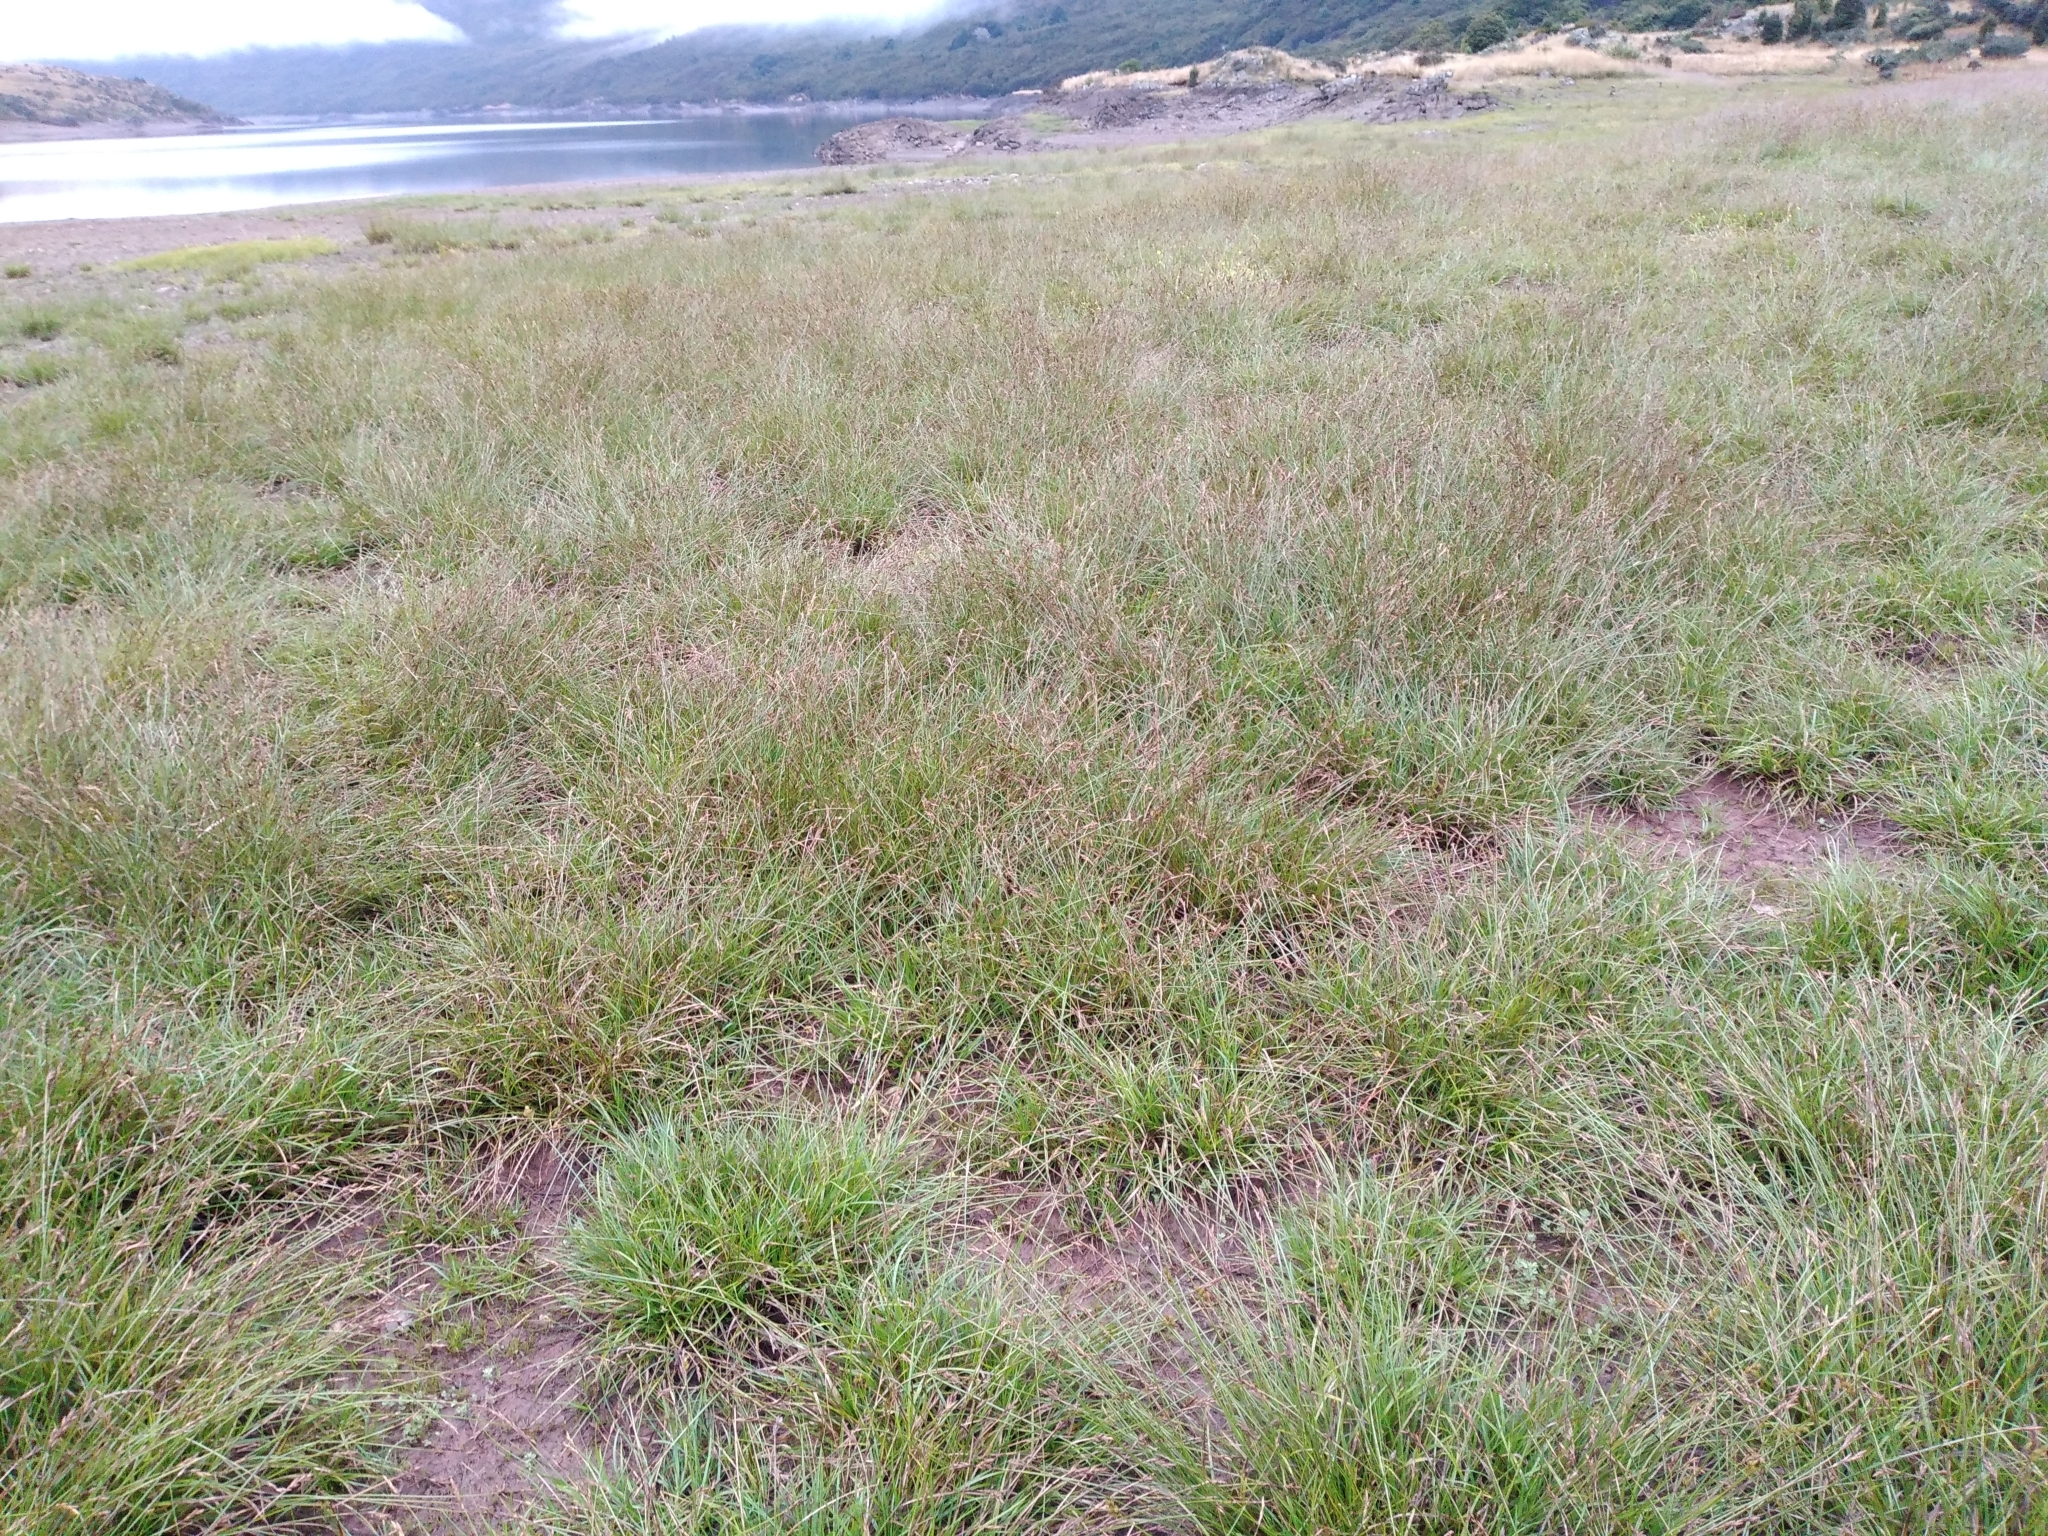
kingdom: Plantae
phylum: Tracheophyta
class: Liliopsida
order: Poales
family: Cyperaceae
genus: Carex
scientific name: Carex leporina
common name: Oval sedge
